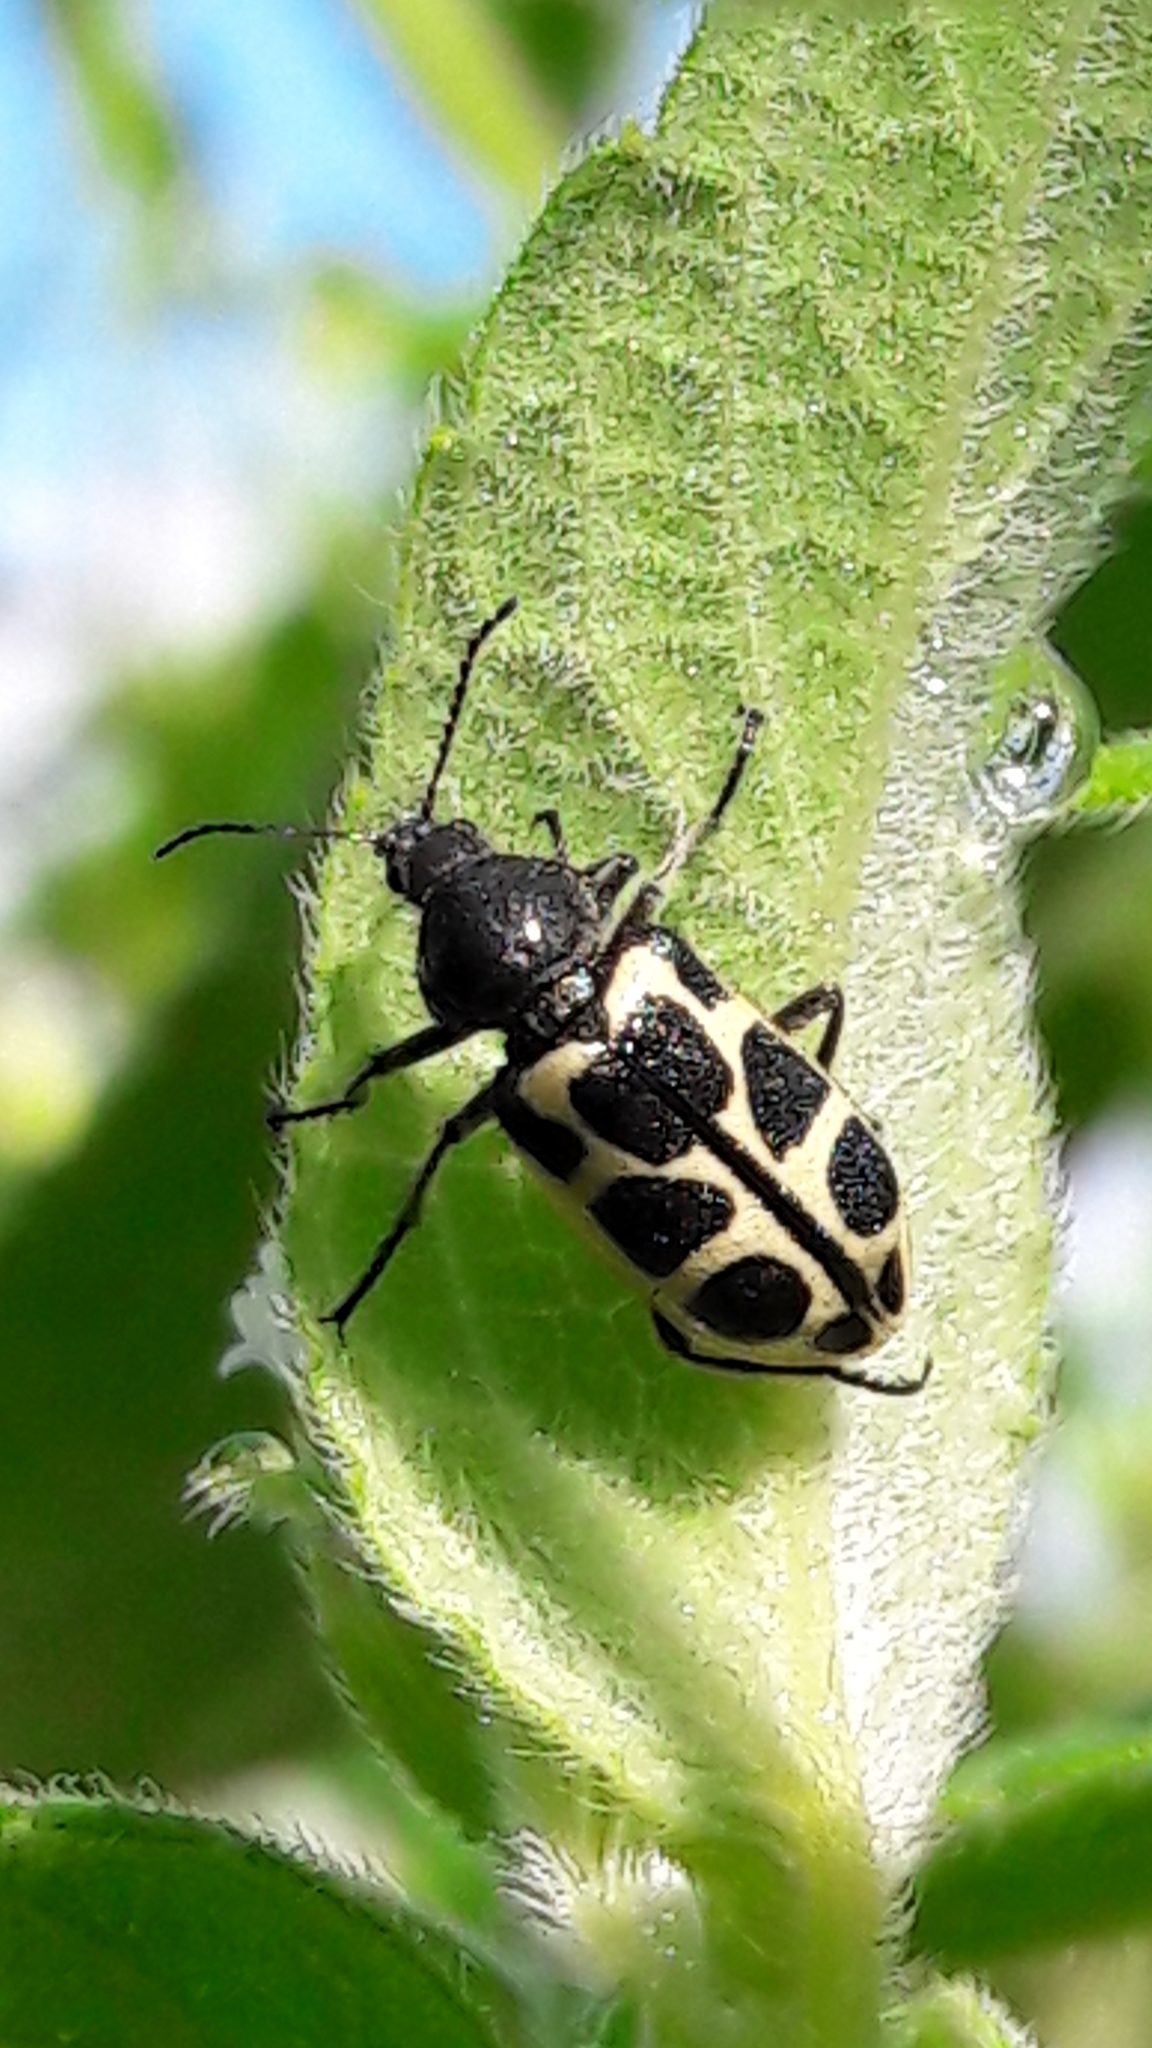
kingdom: Animalia
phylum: Arthropoda
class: Insecta
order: Coleoptera
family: Melyridae
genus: Astylus
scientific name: Astylus
